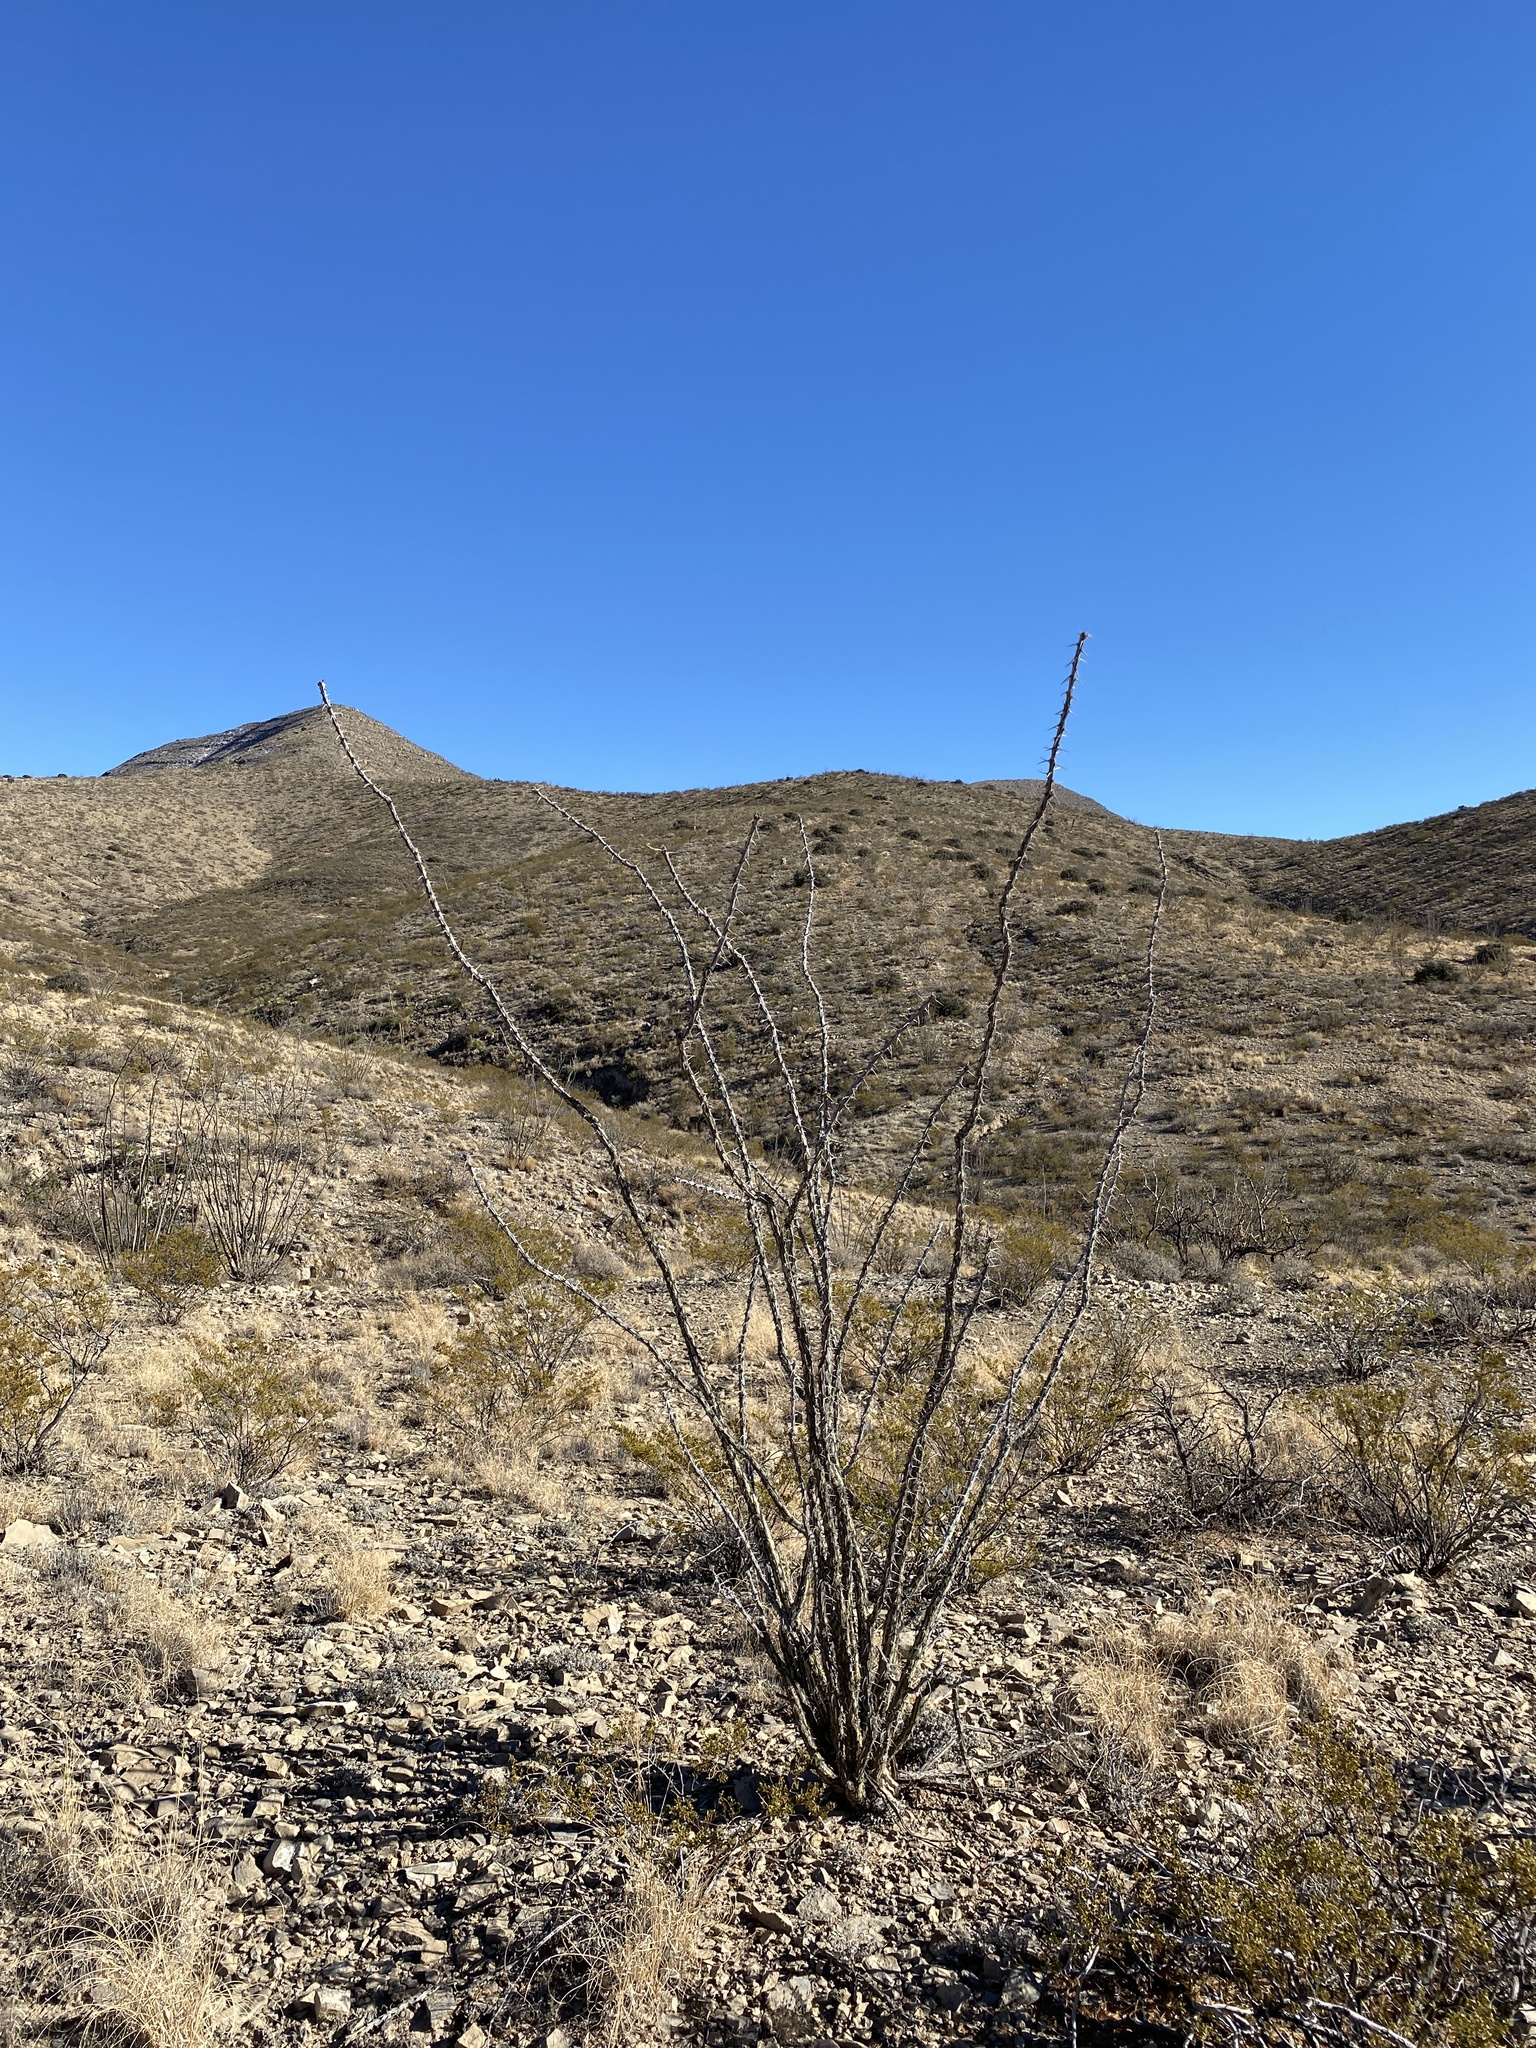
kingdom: Plantae
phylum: Tracheophyta
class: Magnoliopsida
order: Ericales
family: Fouquieriaceae
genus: Fouquieria
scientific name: Fouquieria splendens
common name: Vine-cactus
